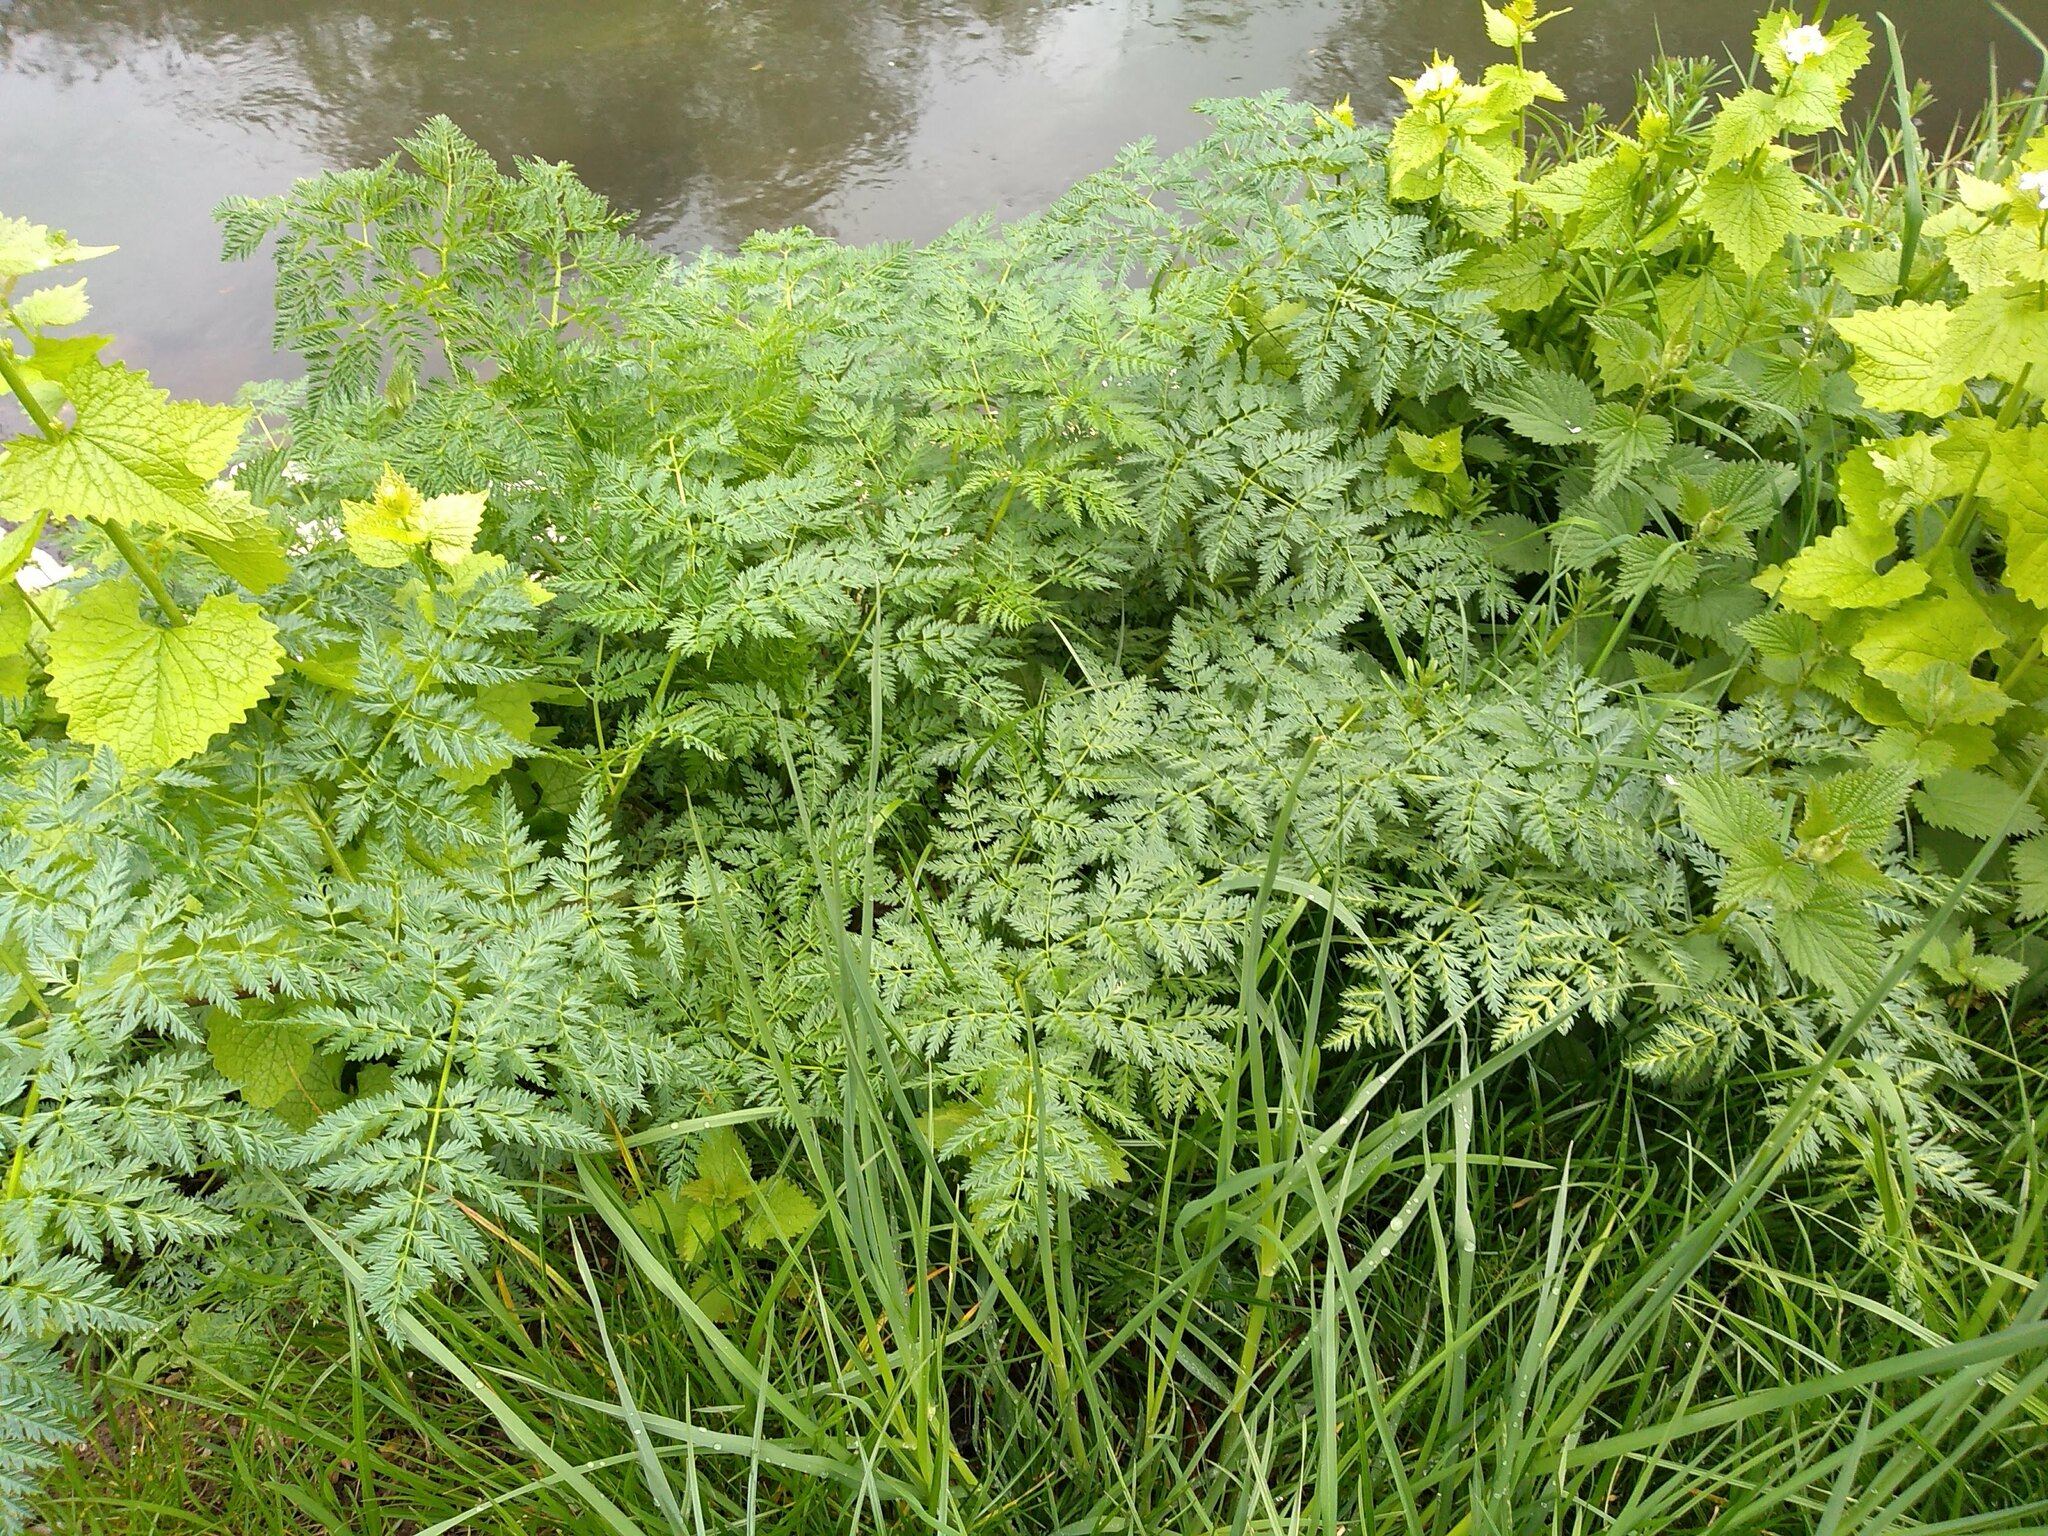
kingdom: Plantae
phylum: Tracheophyta
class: Magnoliopsida
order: Apiales
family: Apiaceae
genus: Oenanthe
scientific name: Oenanthe crocata
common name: Hemlock water-dropwort
